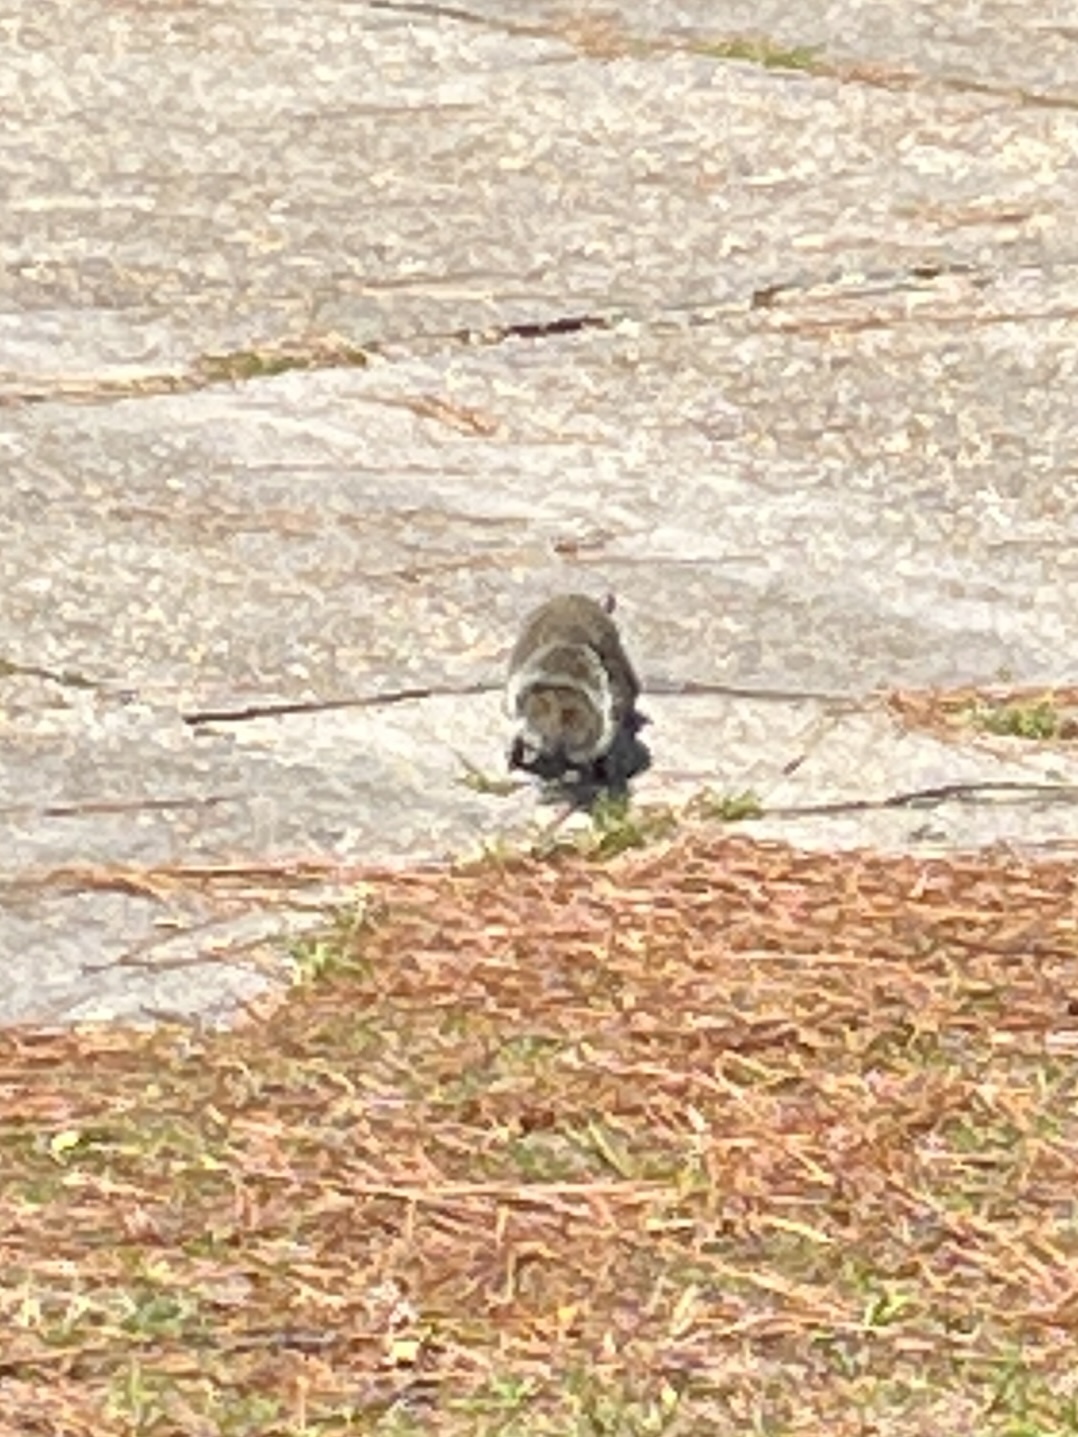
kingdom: Animalia
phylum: Chordata
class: Mammalia
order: Rodentia
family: Sciuridae
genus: Sciurus
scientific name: Sciurus carolinensis
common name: Eastern gray squirrel
